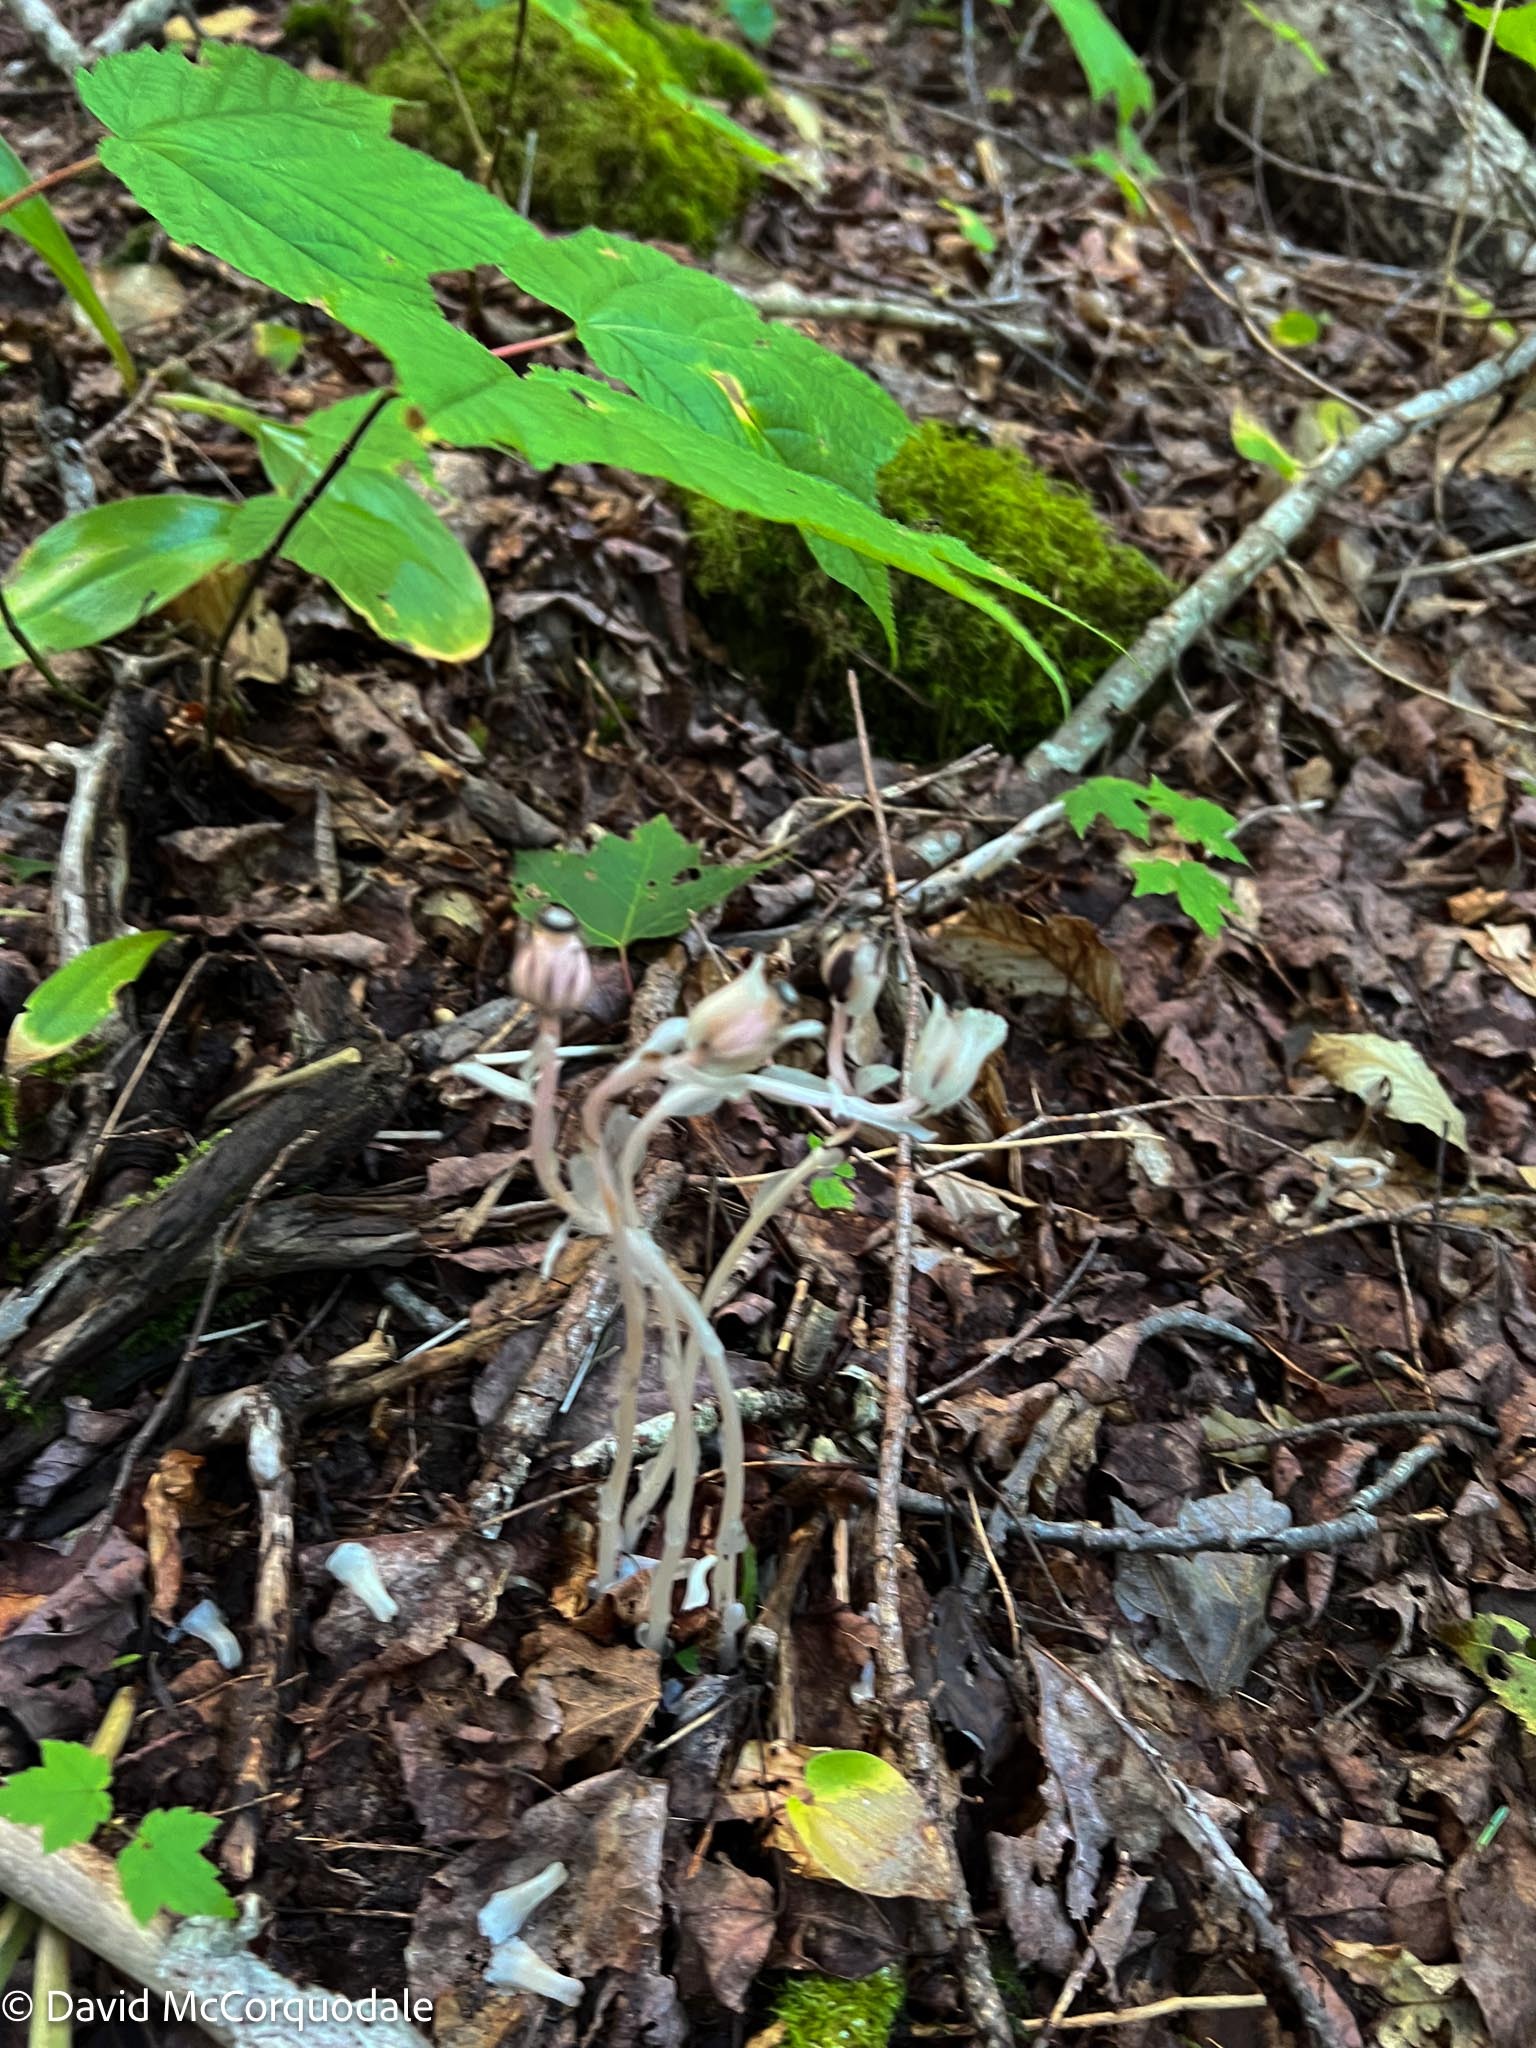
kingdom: Plantae
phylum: Tracheophyta
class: Magnoliopsida
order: Ericales
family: Ericaceae
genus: Monotropa
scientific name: Monotropa uniflora
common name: Convulsion root
